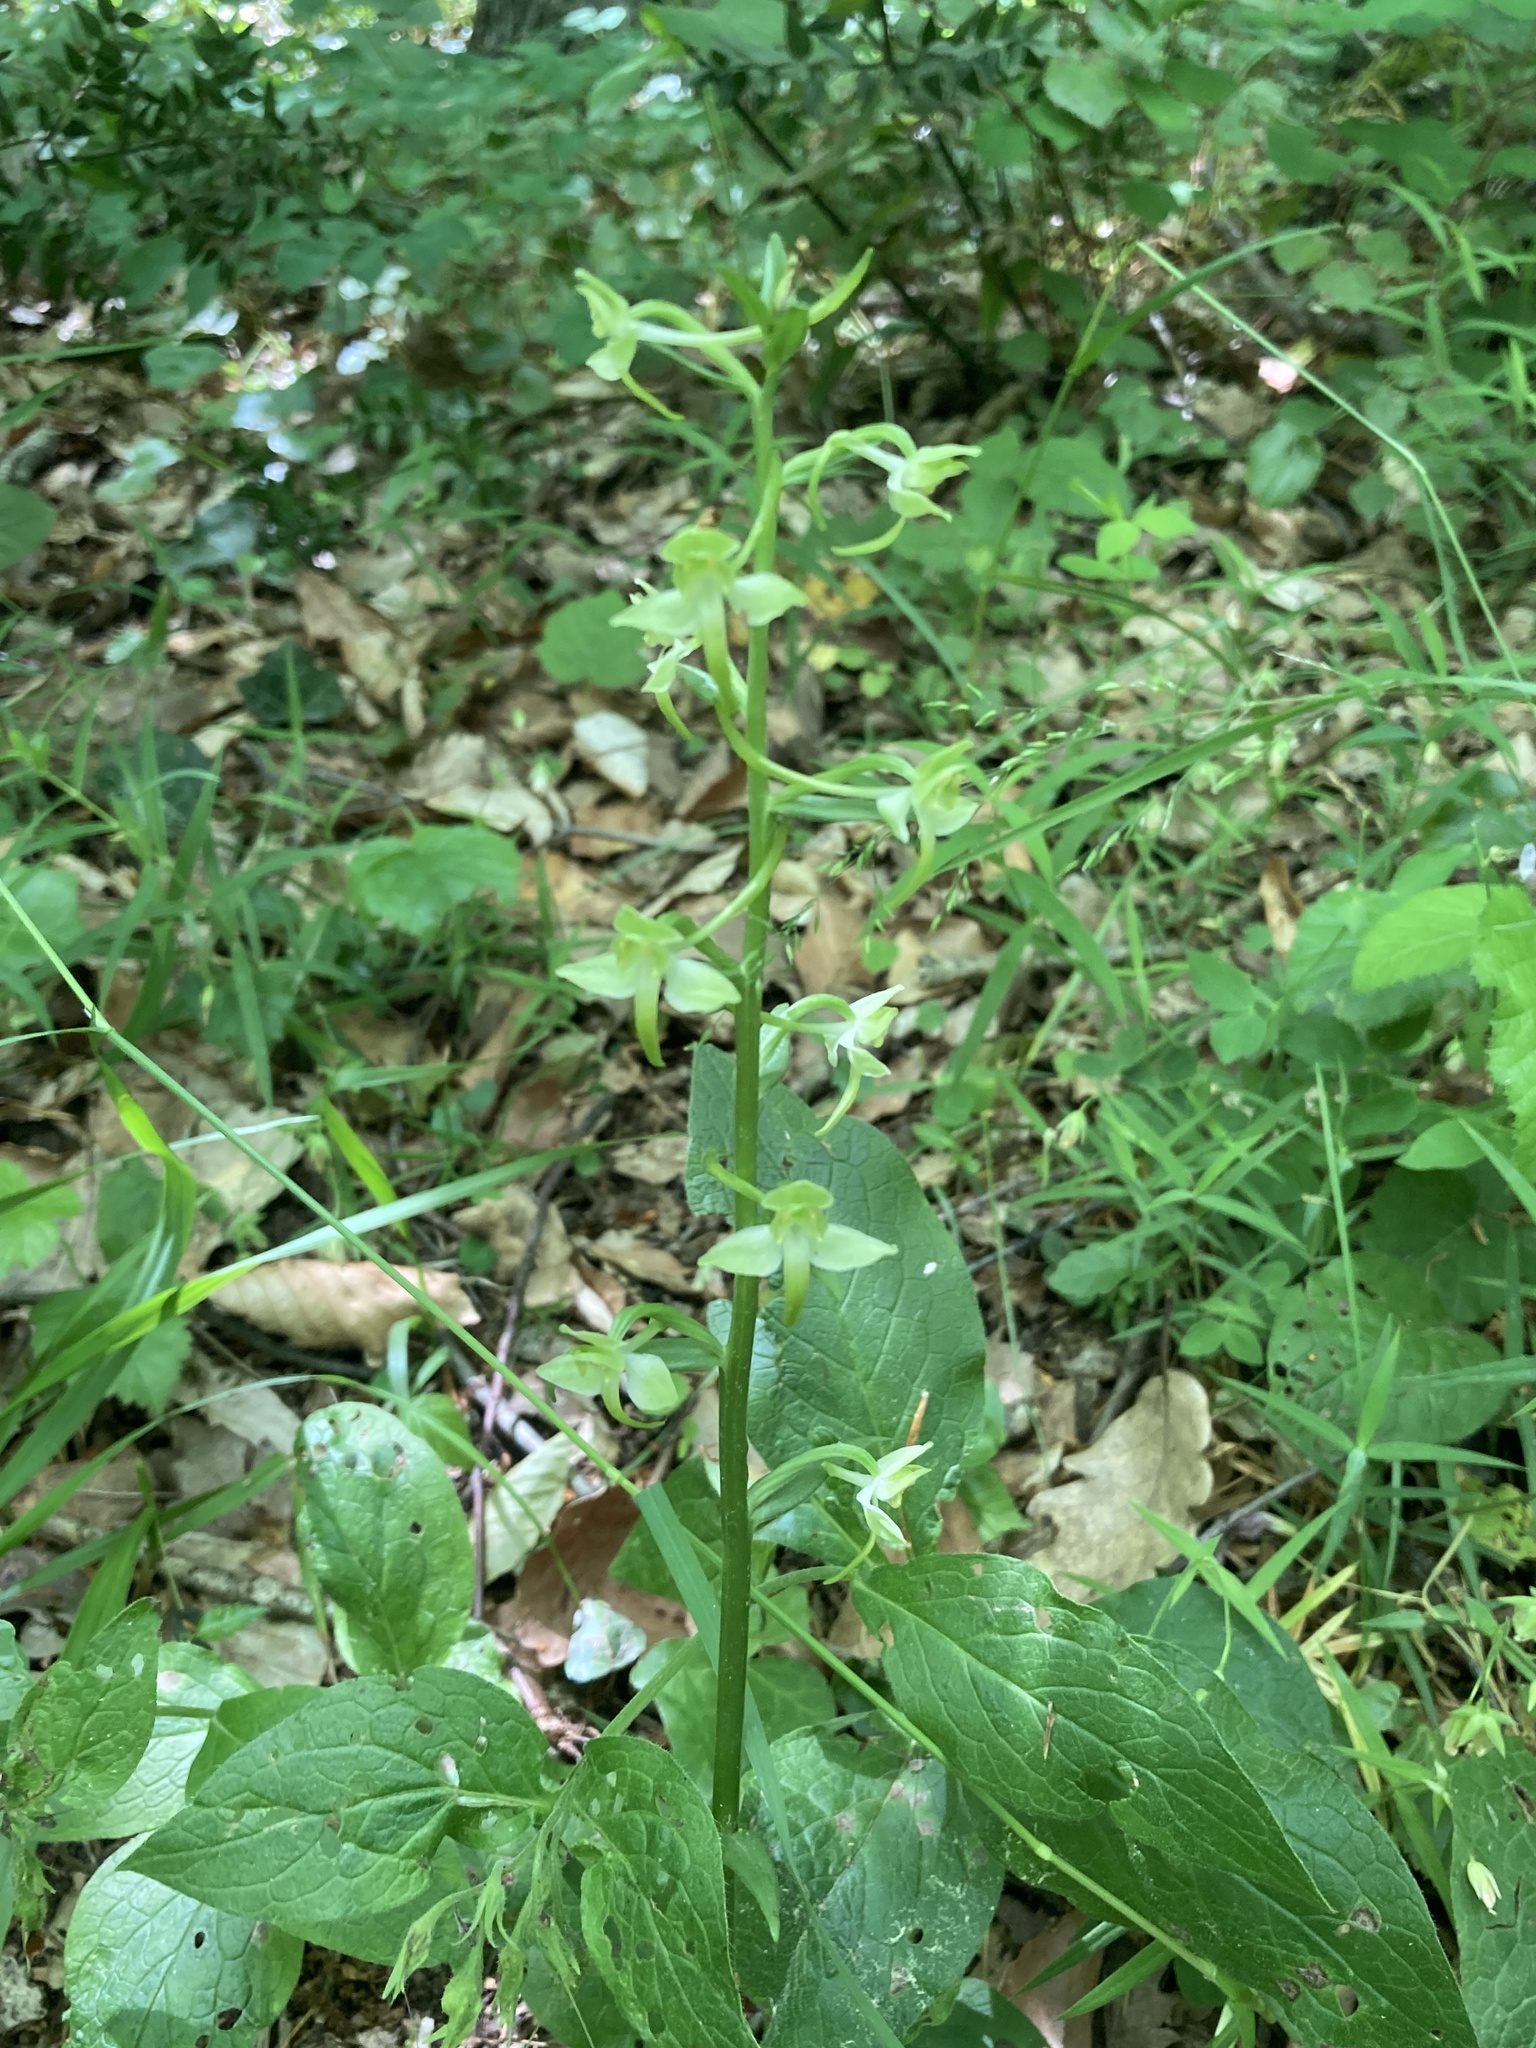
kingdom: Plantae
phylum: Tracheophyta
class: Liliopsida
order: Asparagales
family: Orchidaceae
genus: Platanthera
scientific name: Platanthera chlorantha
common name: Greater butterfly-orchid
